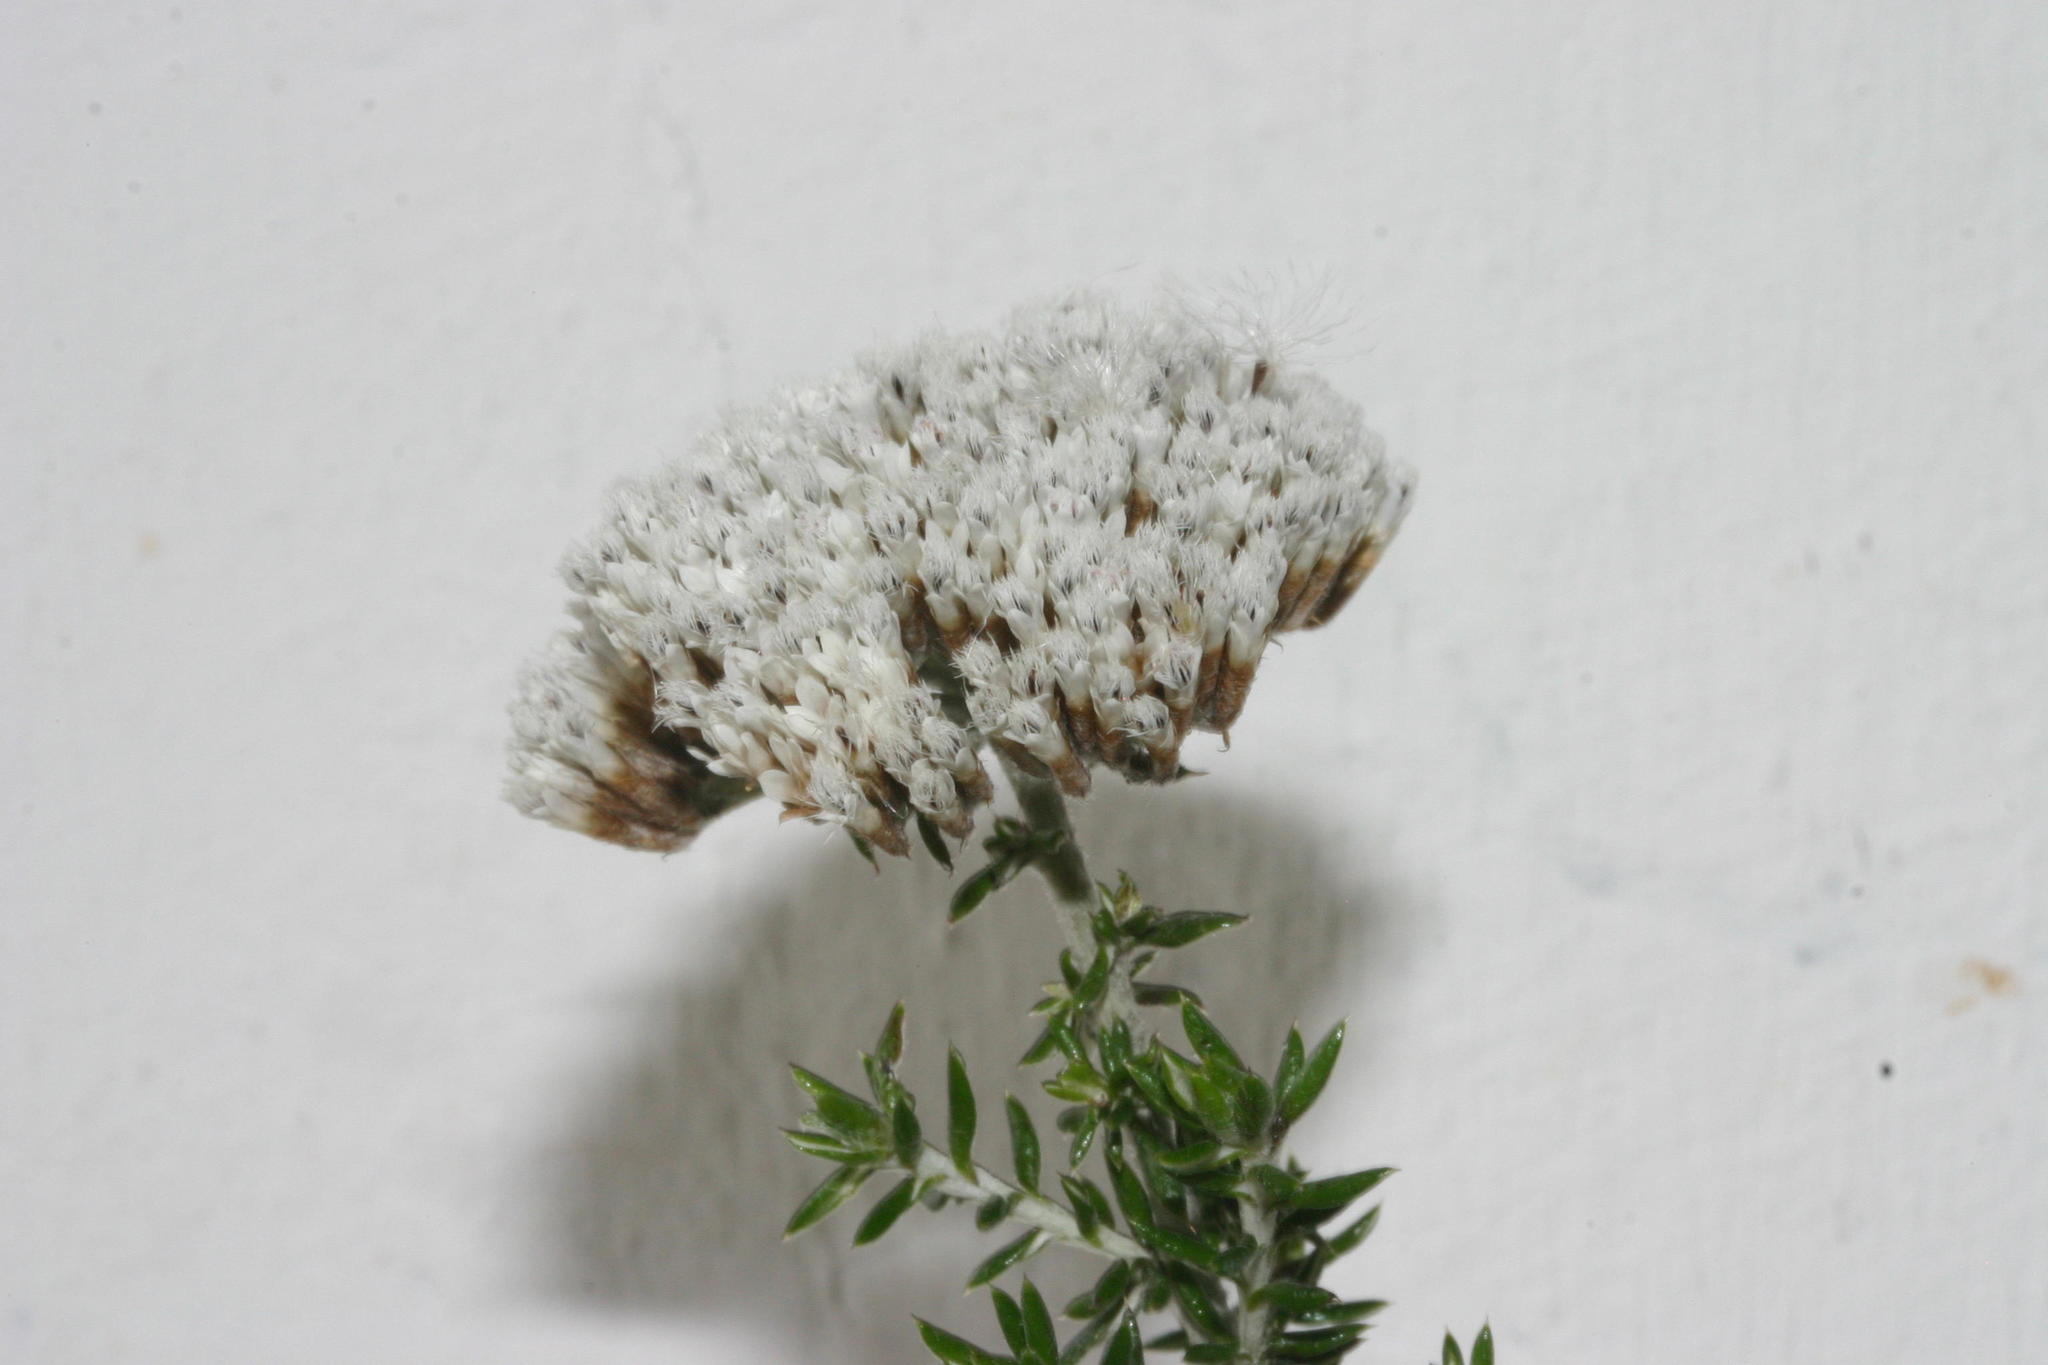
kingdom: Plantae
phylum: Tracheophyta
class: Magnoliopsida
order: Asterales
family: Asteraceae
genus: Metalasia
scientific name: Metalasia densa
